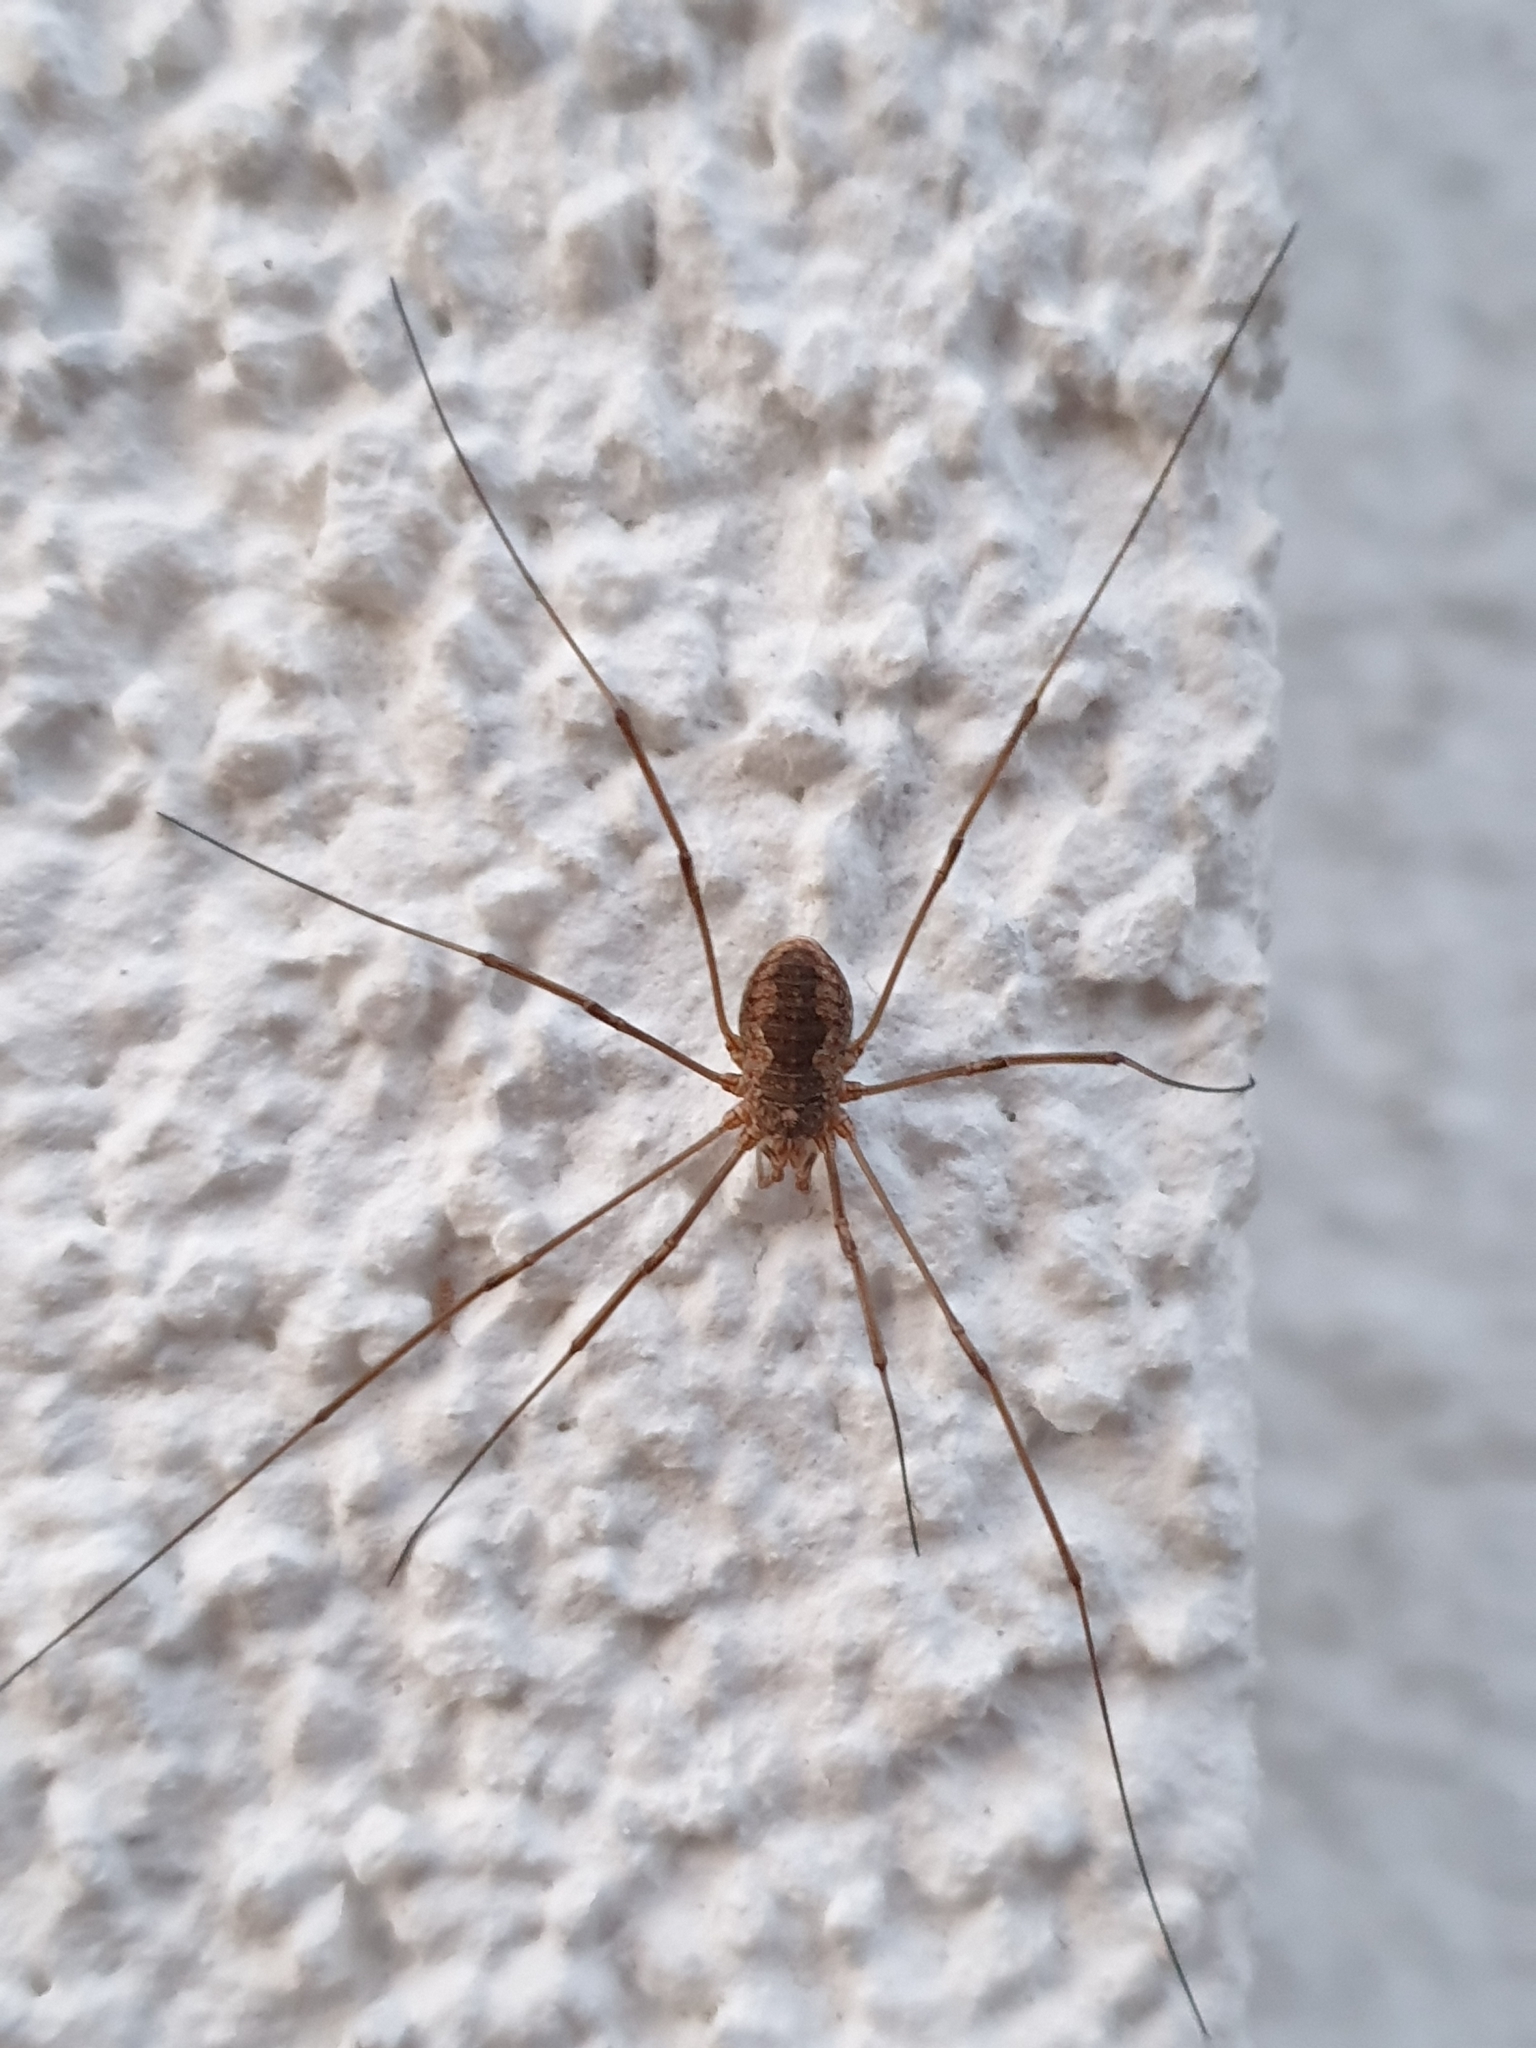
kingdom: Animalia
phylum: Arthropoda
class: Arachnida
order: Opiliones
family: Phalangiidae
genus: Phalangium
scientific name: Phalangium opilio
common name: Daddy longleg
